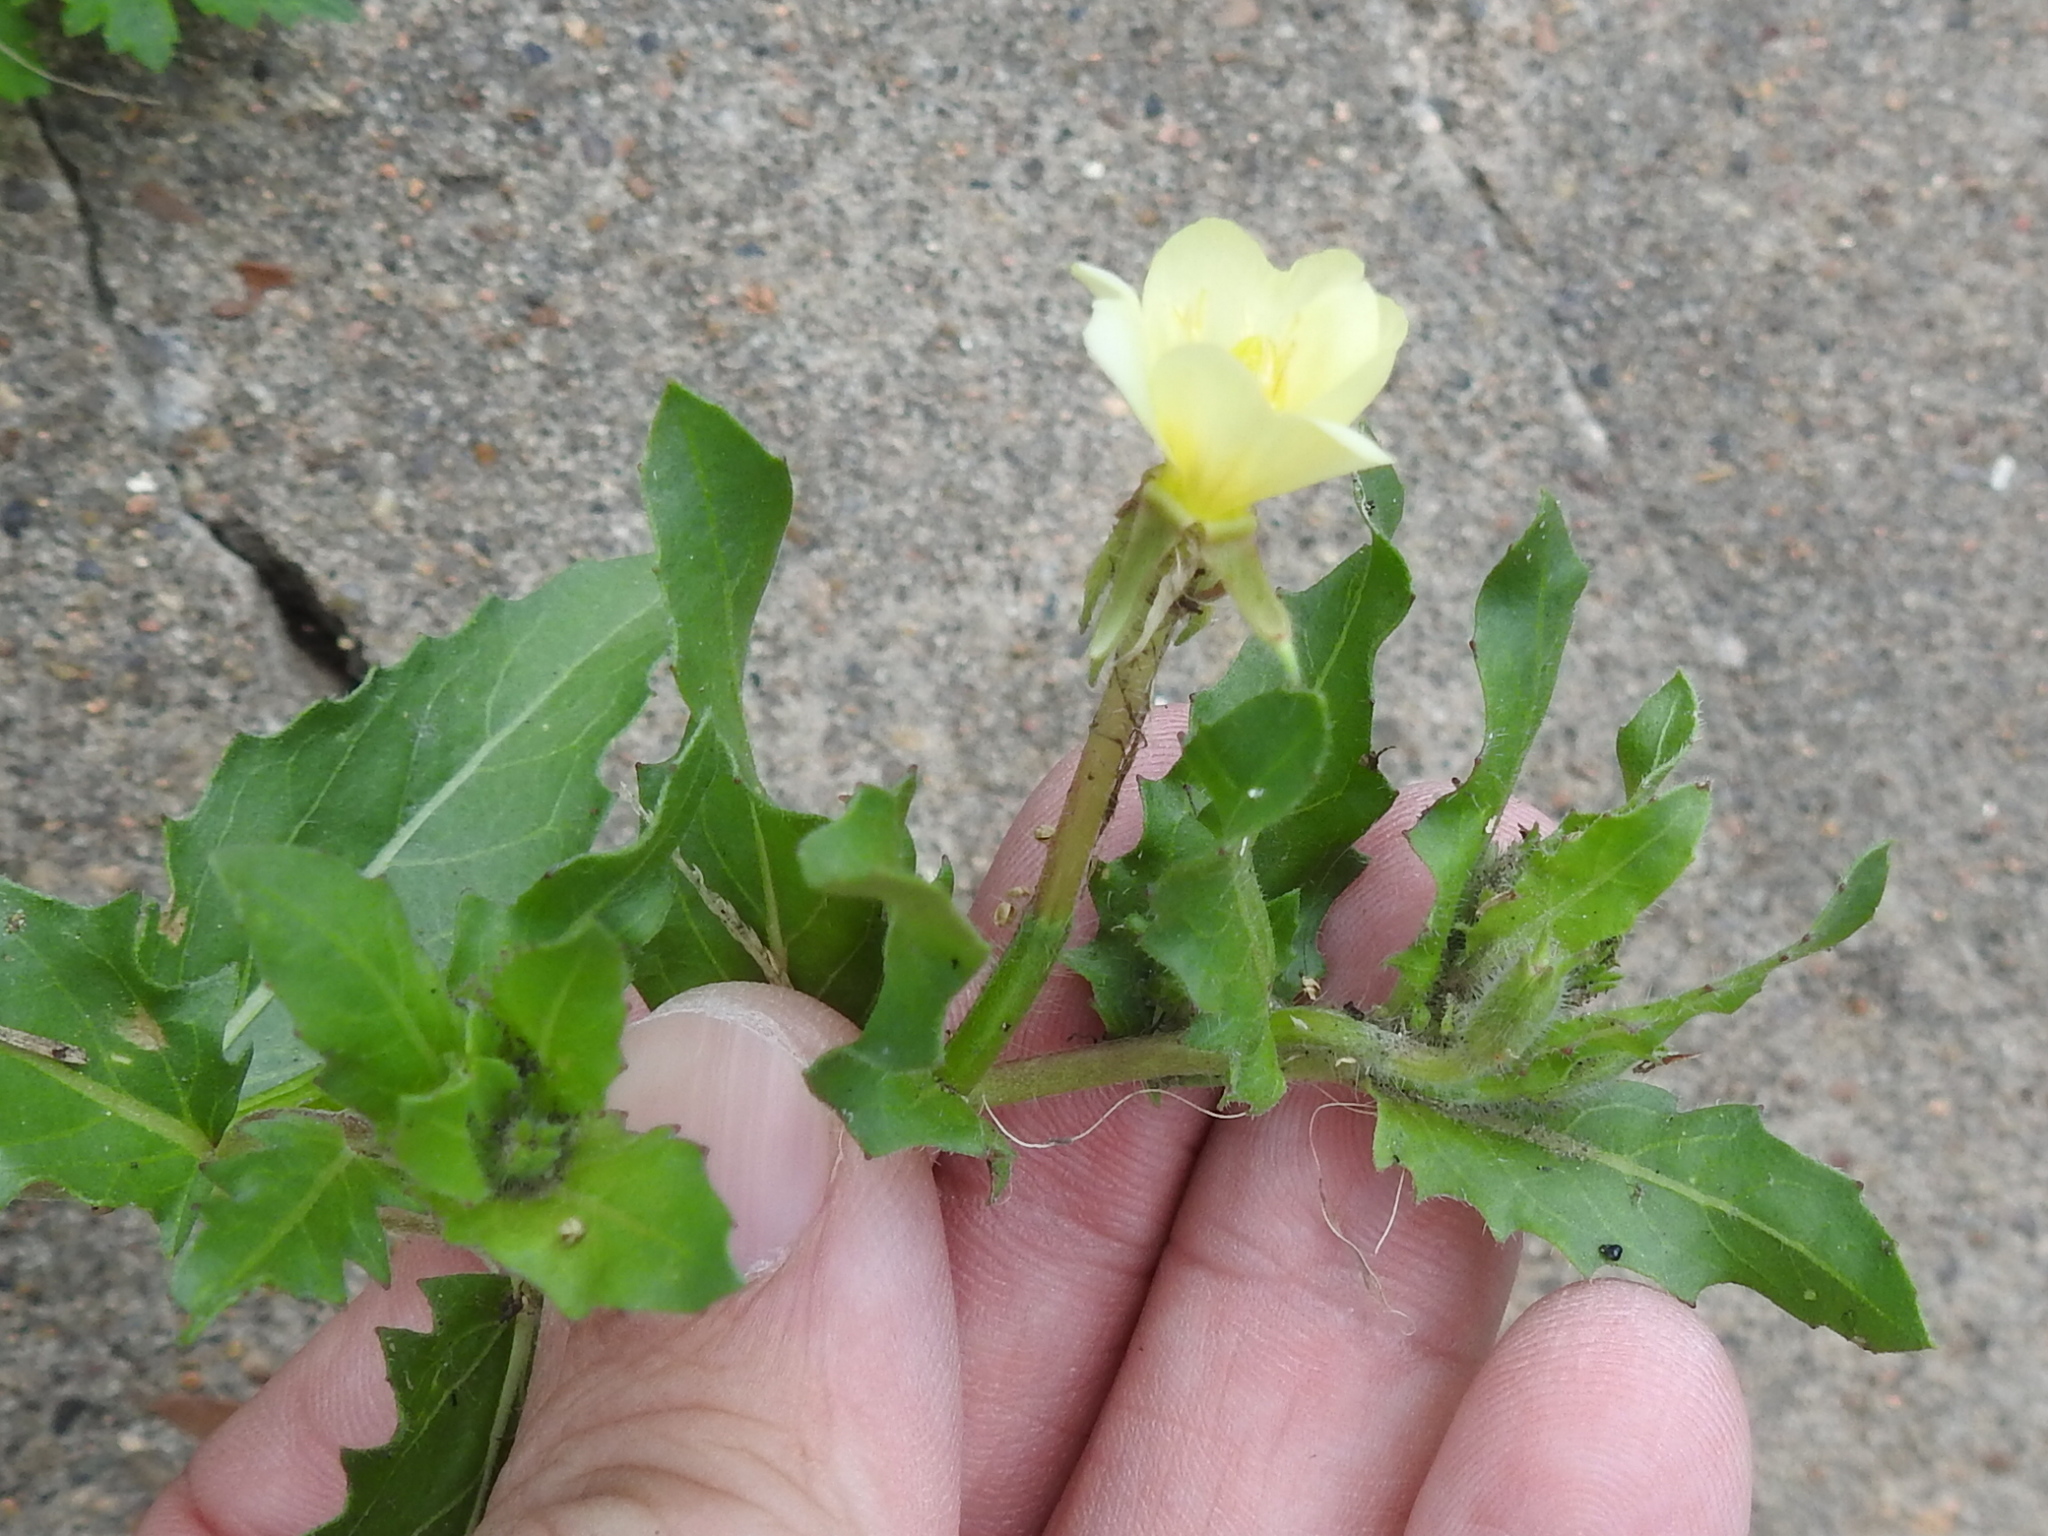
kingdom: Plantae
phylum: Tracheophyta
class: Magnoliopsida
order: Myrtales
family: Onagraceae
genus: Oenothera
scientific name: Oenothera laciniata
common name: Cut-leaved evening-primrose
